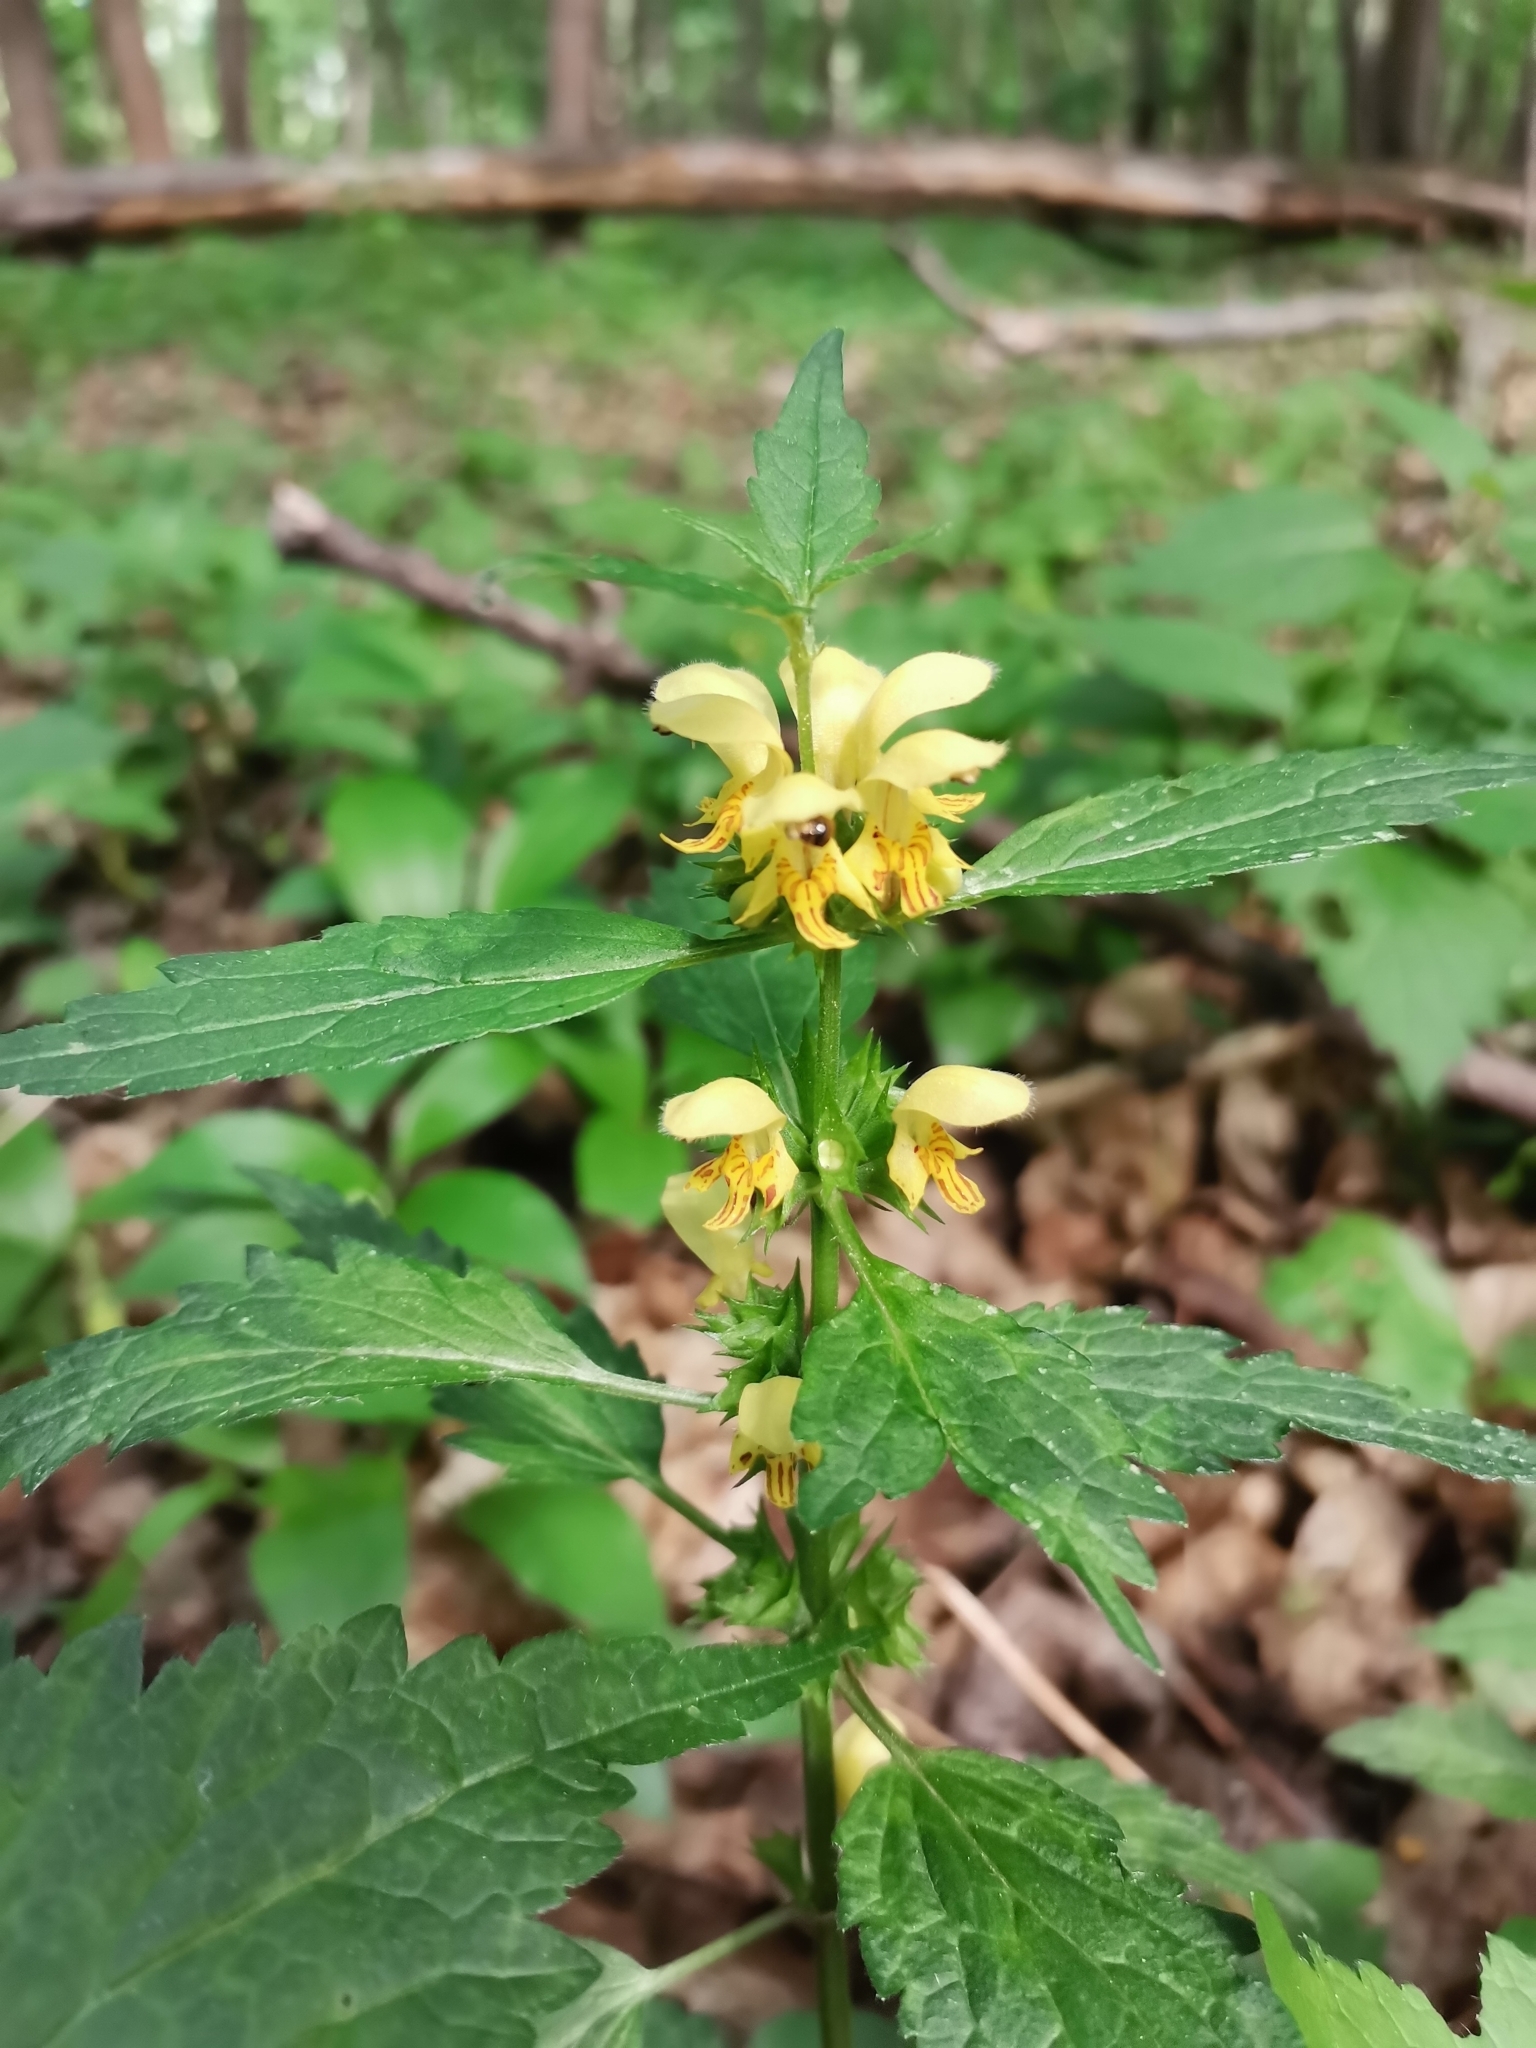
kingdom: Plantae
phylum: Tracheophyta
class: Magnoliopsida
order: Lamiales
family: Lamiaceae
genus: Lamium
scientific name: Lamium galeobdolon
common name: Yellow archangel
